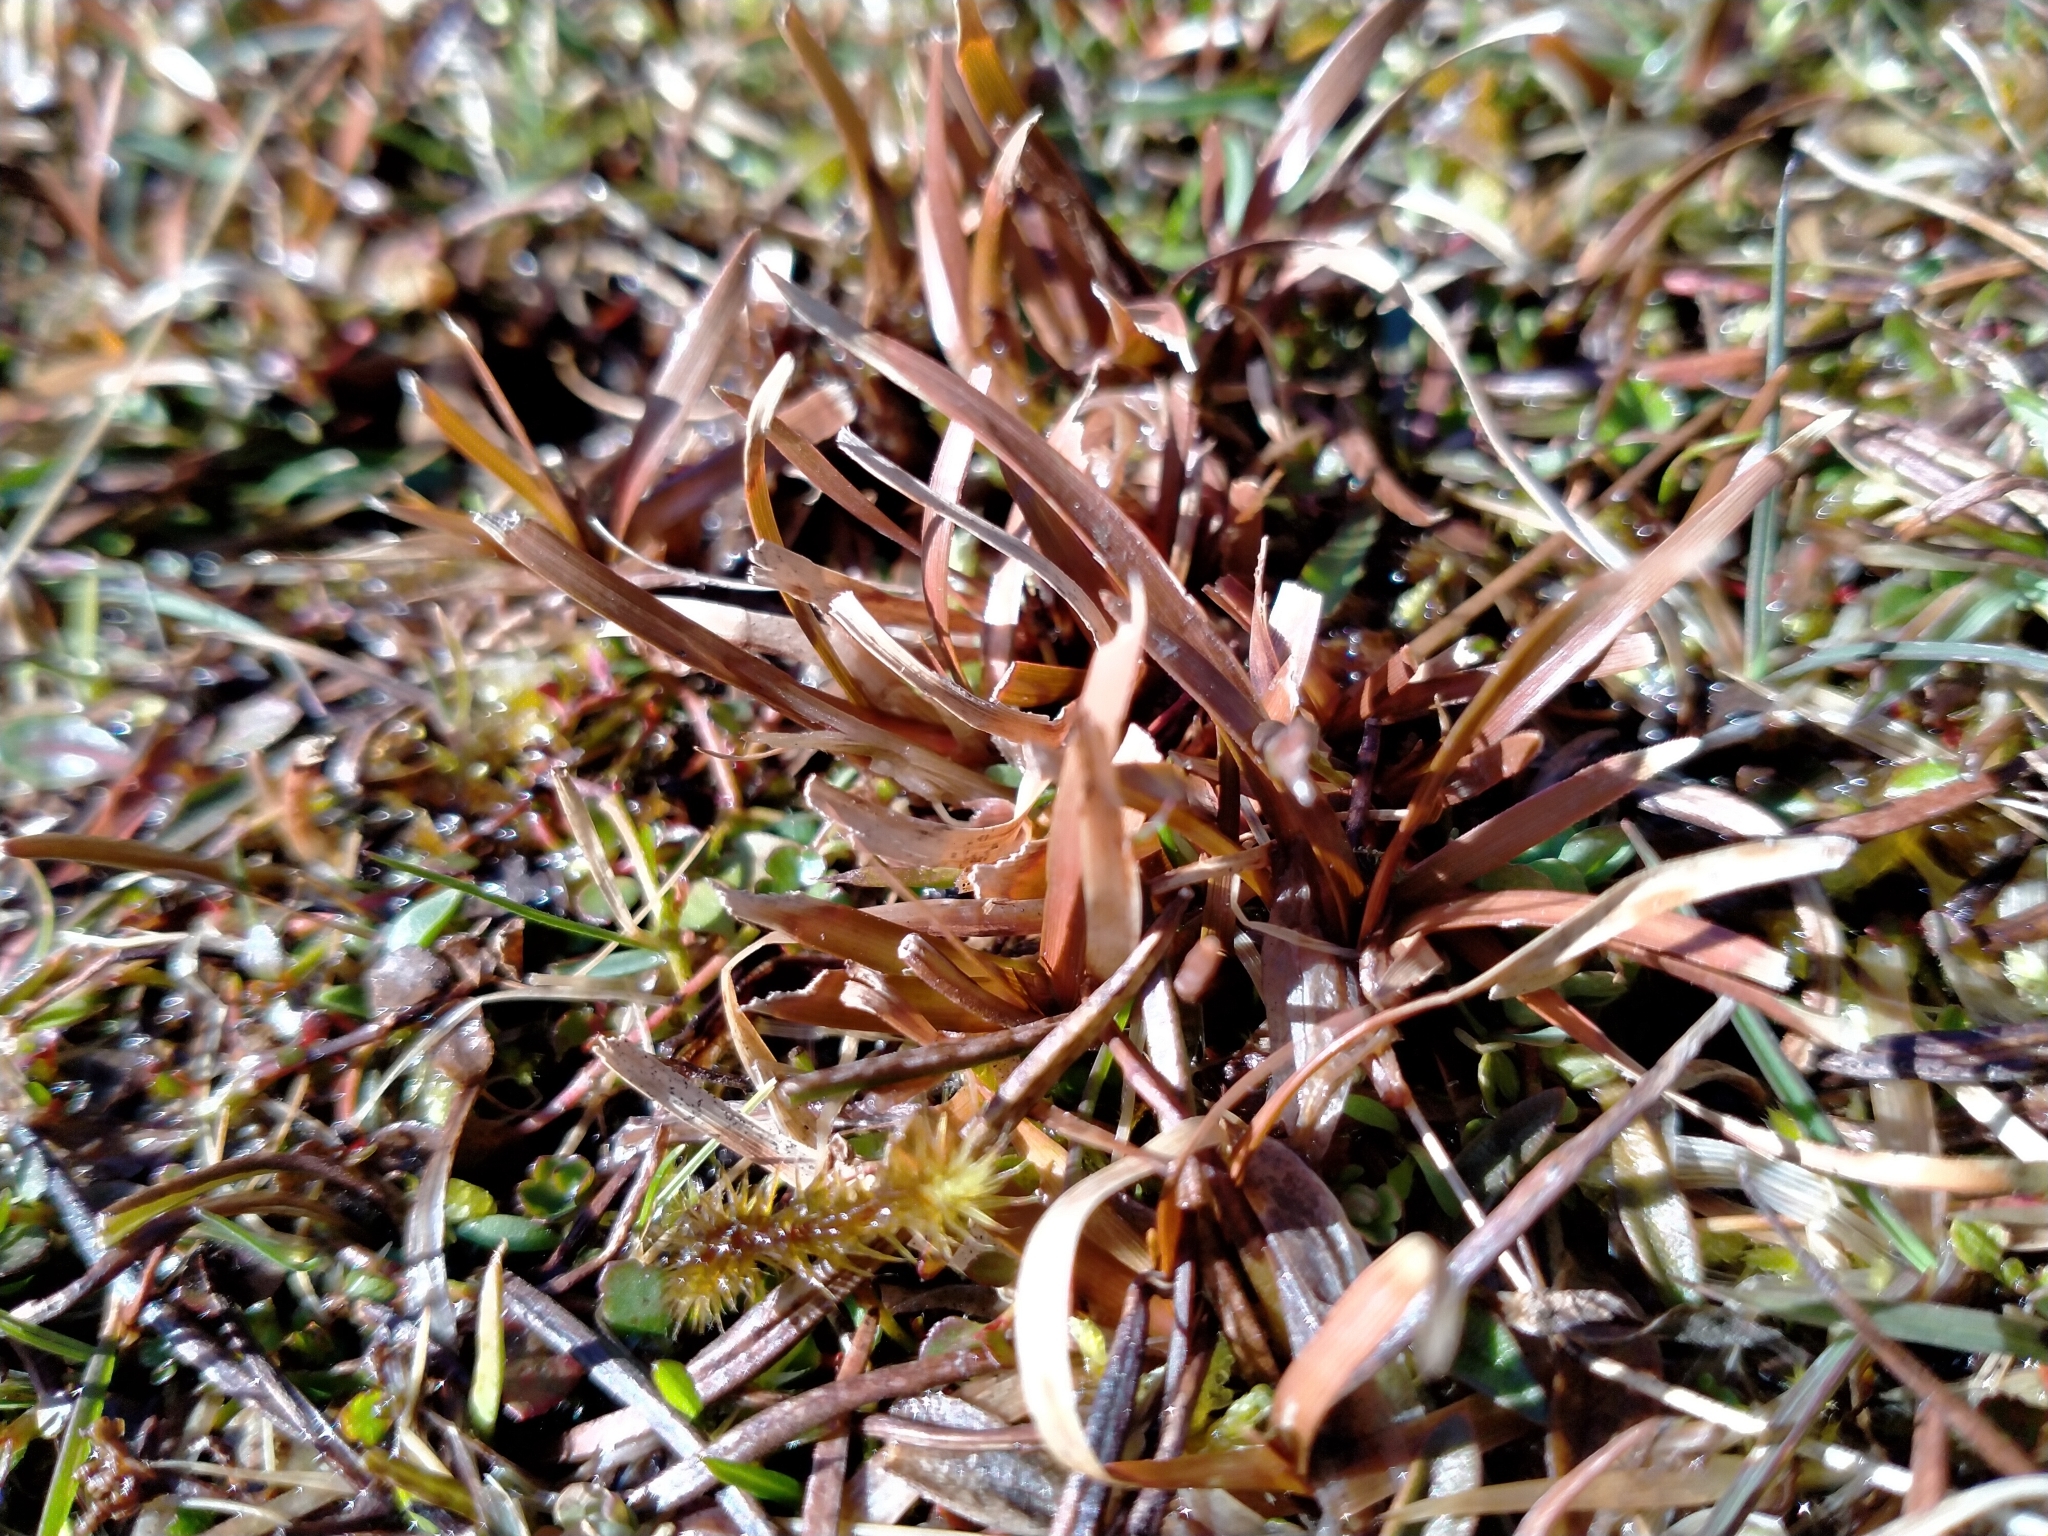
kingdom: Plantae
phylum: Tracheophyta
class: Liliopsida
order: Poales
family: Cyperaceae
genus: Carex
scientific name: Carex talbotii
